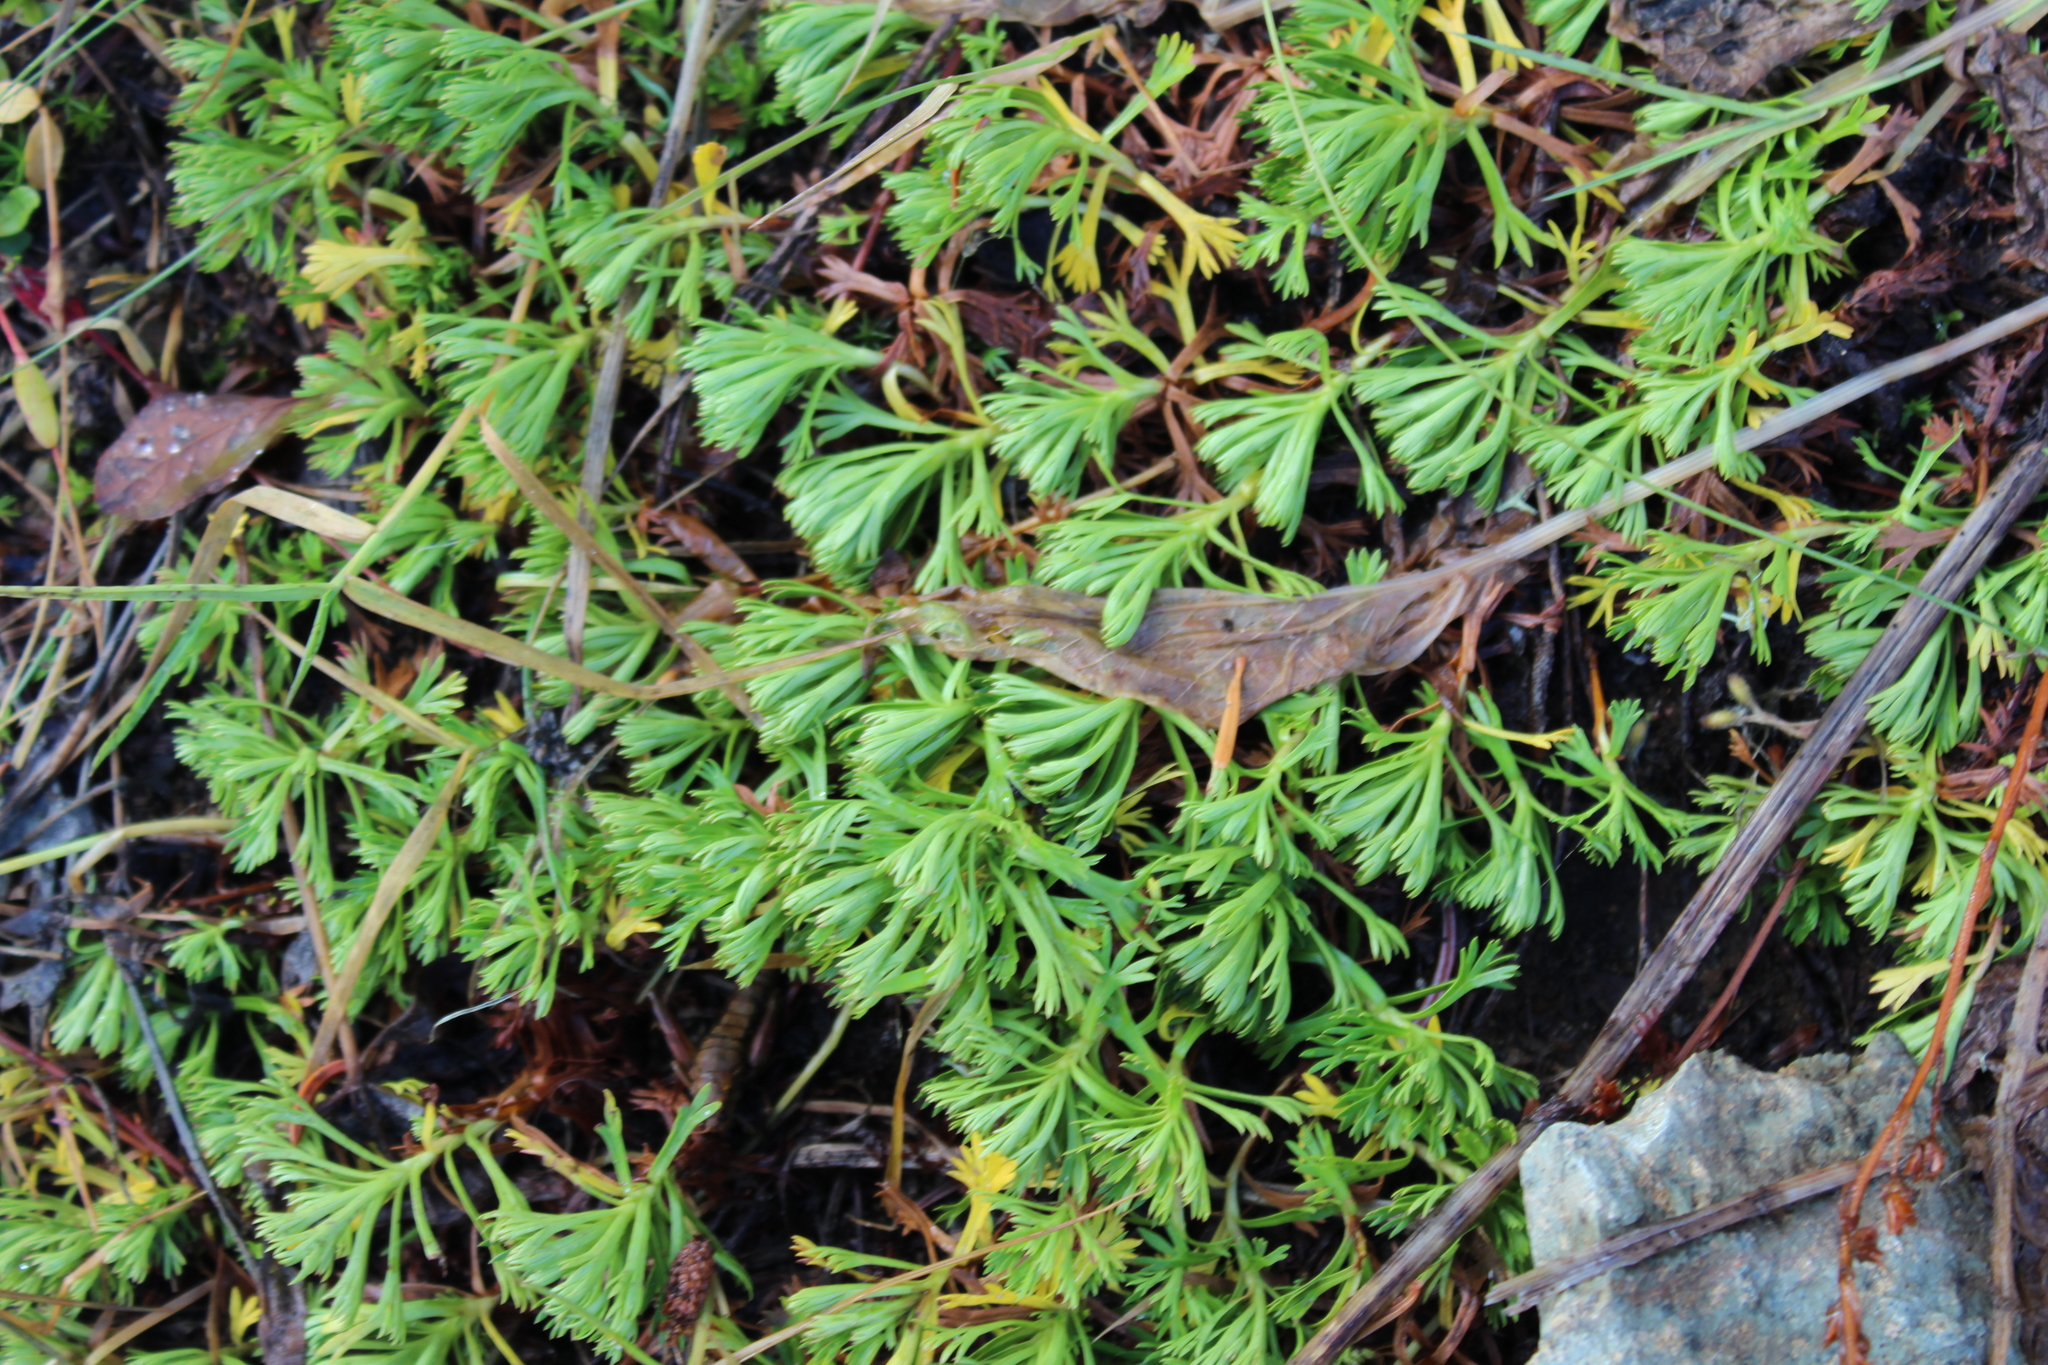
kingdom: Plantae
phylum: Tracheophyta
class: Magnoliopsida
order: Rosales
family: Rosaceae
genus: Luetkea
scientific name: Luetkea pectinata
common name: Partridgefoot
